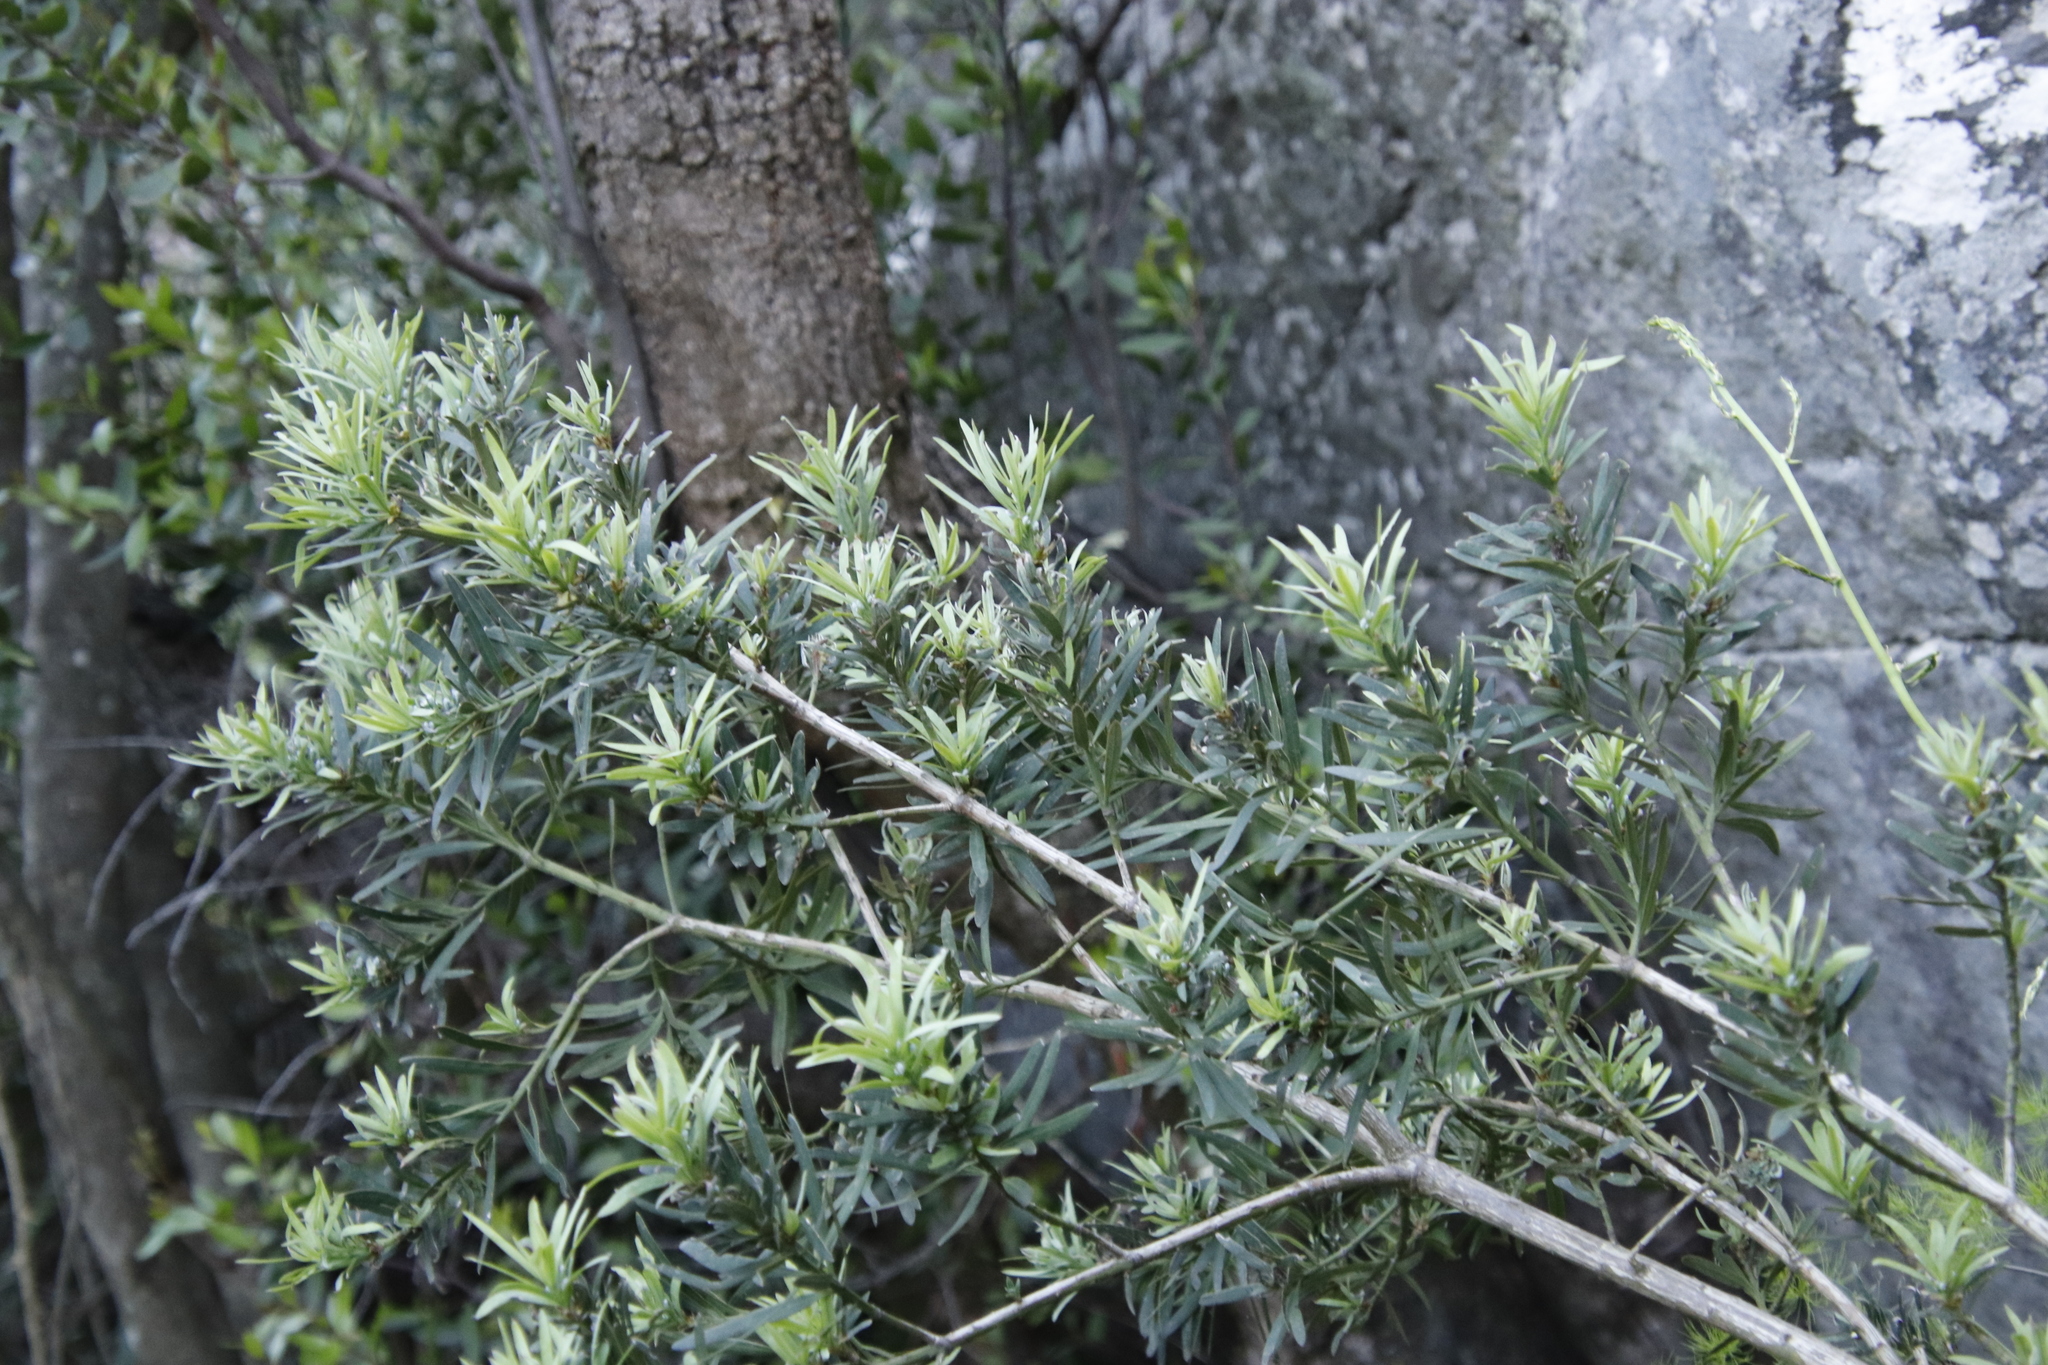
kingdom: Plantae
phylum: Tracheophyta
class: Pinopsida
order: Pinales
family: Podocarpaceae
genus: Podocarpus
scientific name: Podocarpus elongatus
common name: Breede river yellowwood
